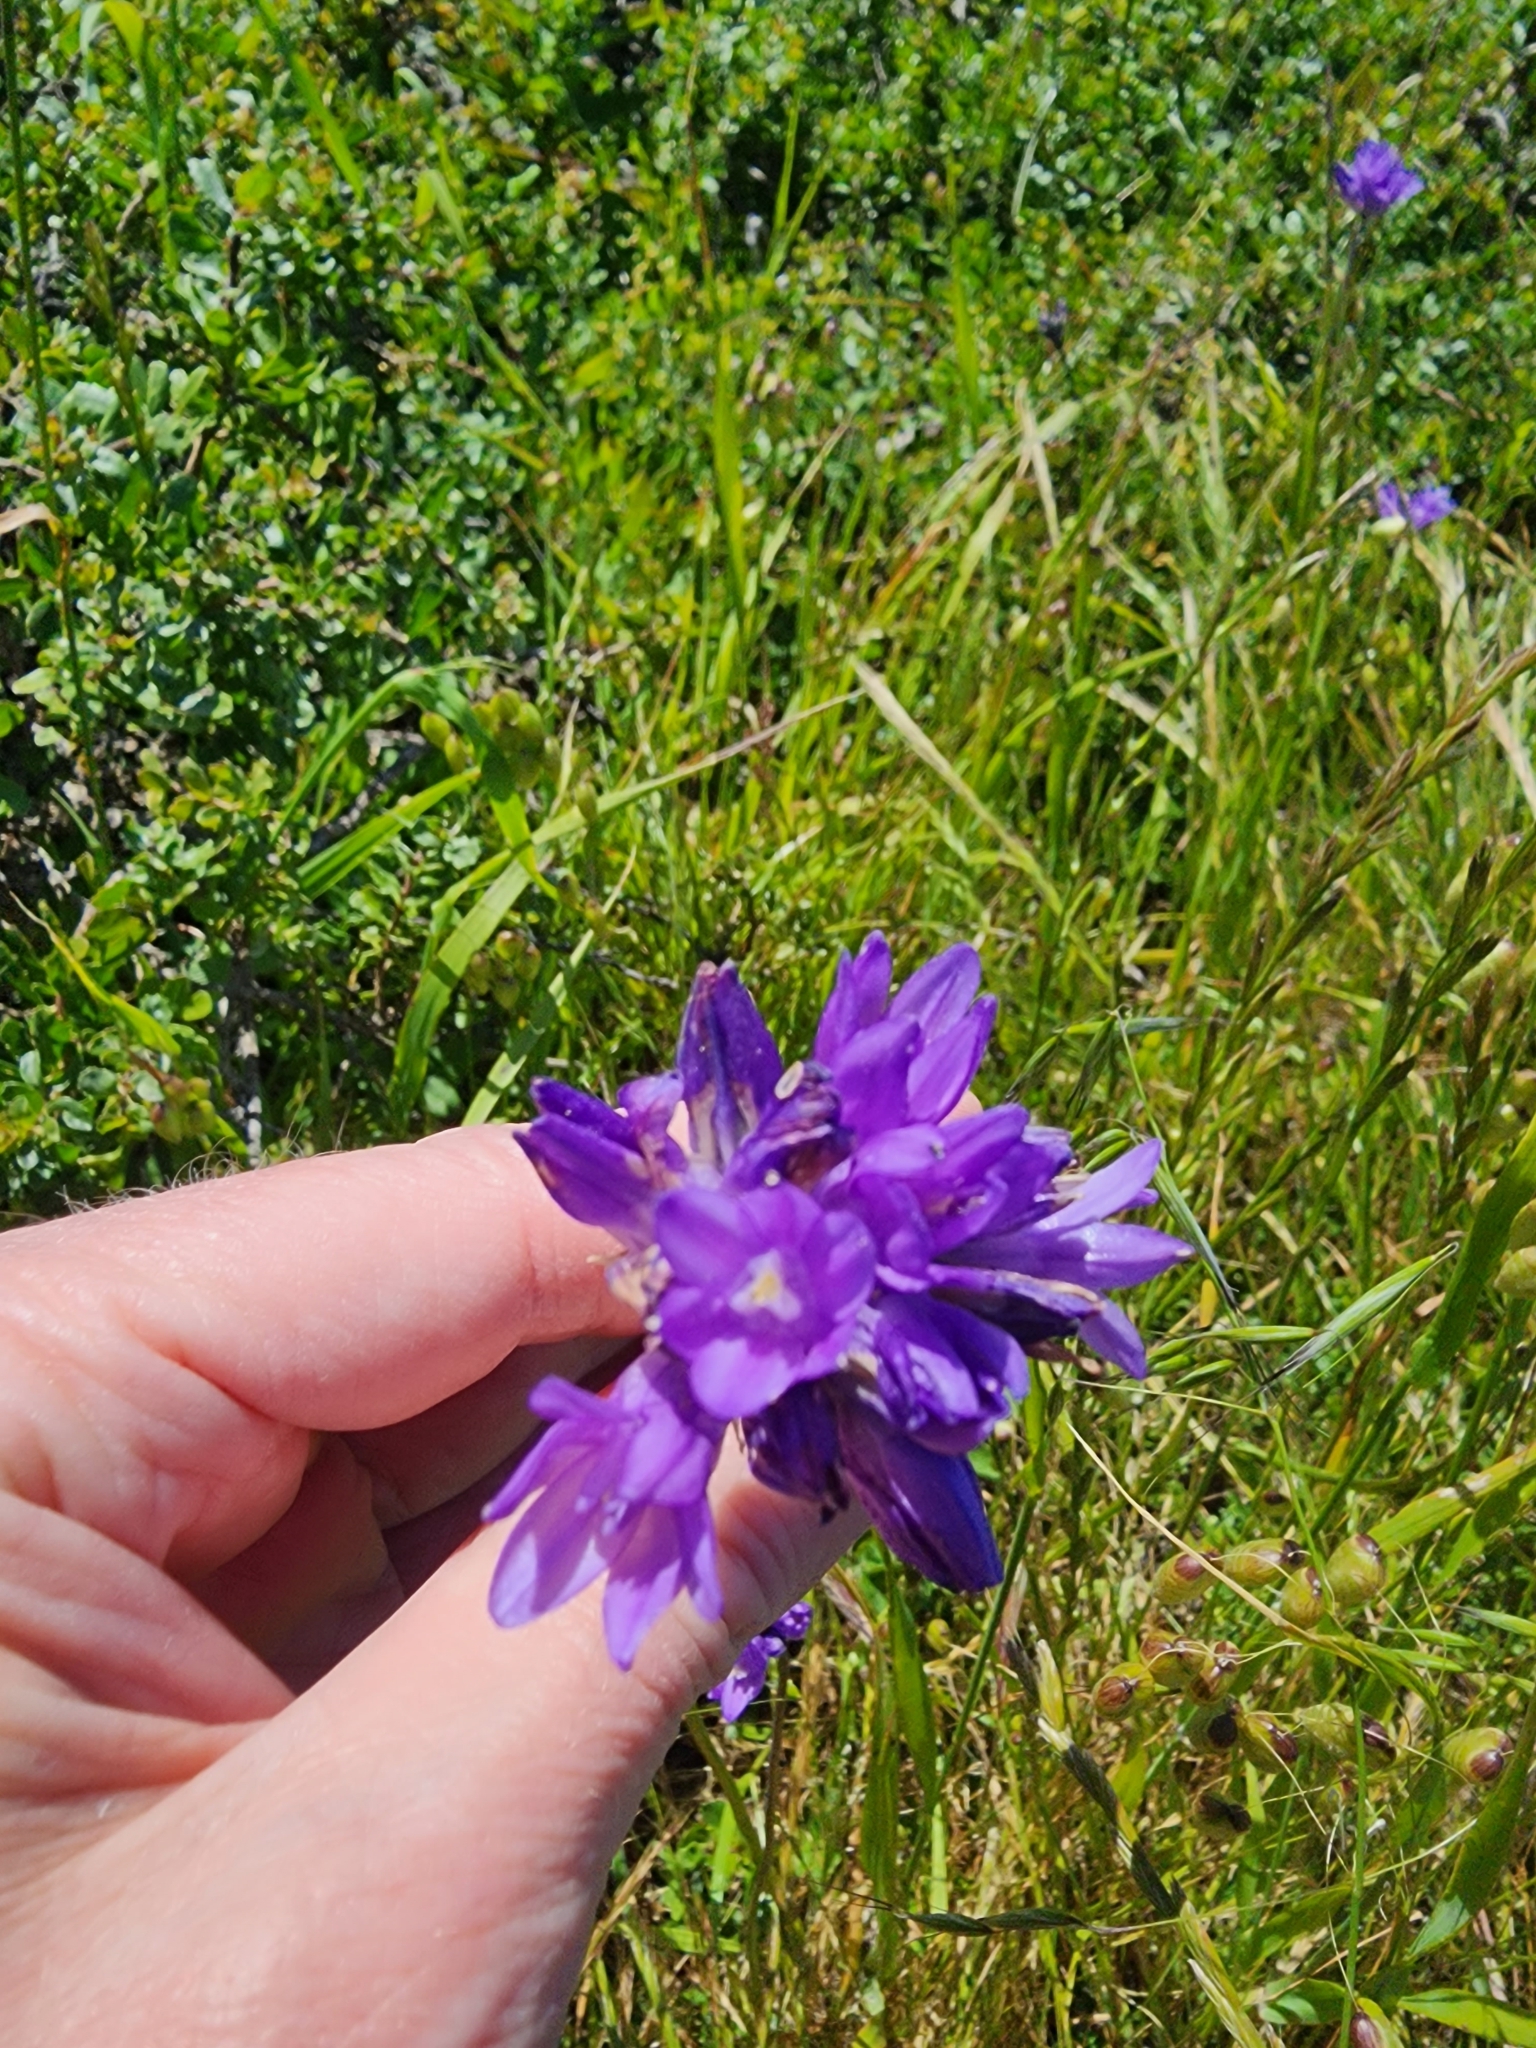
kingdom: Plantae
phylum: Tracheophyta
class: Liliopsida
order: Asparagales
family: Asparagaceae
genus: Dipterostemon
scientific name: Dipterostemon capitatus
